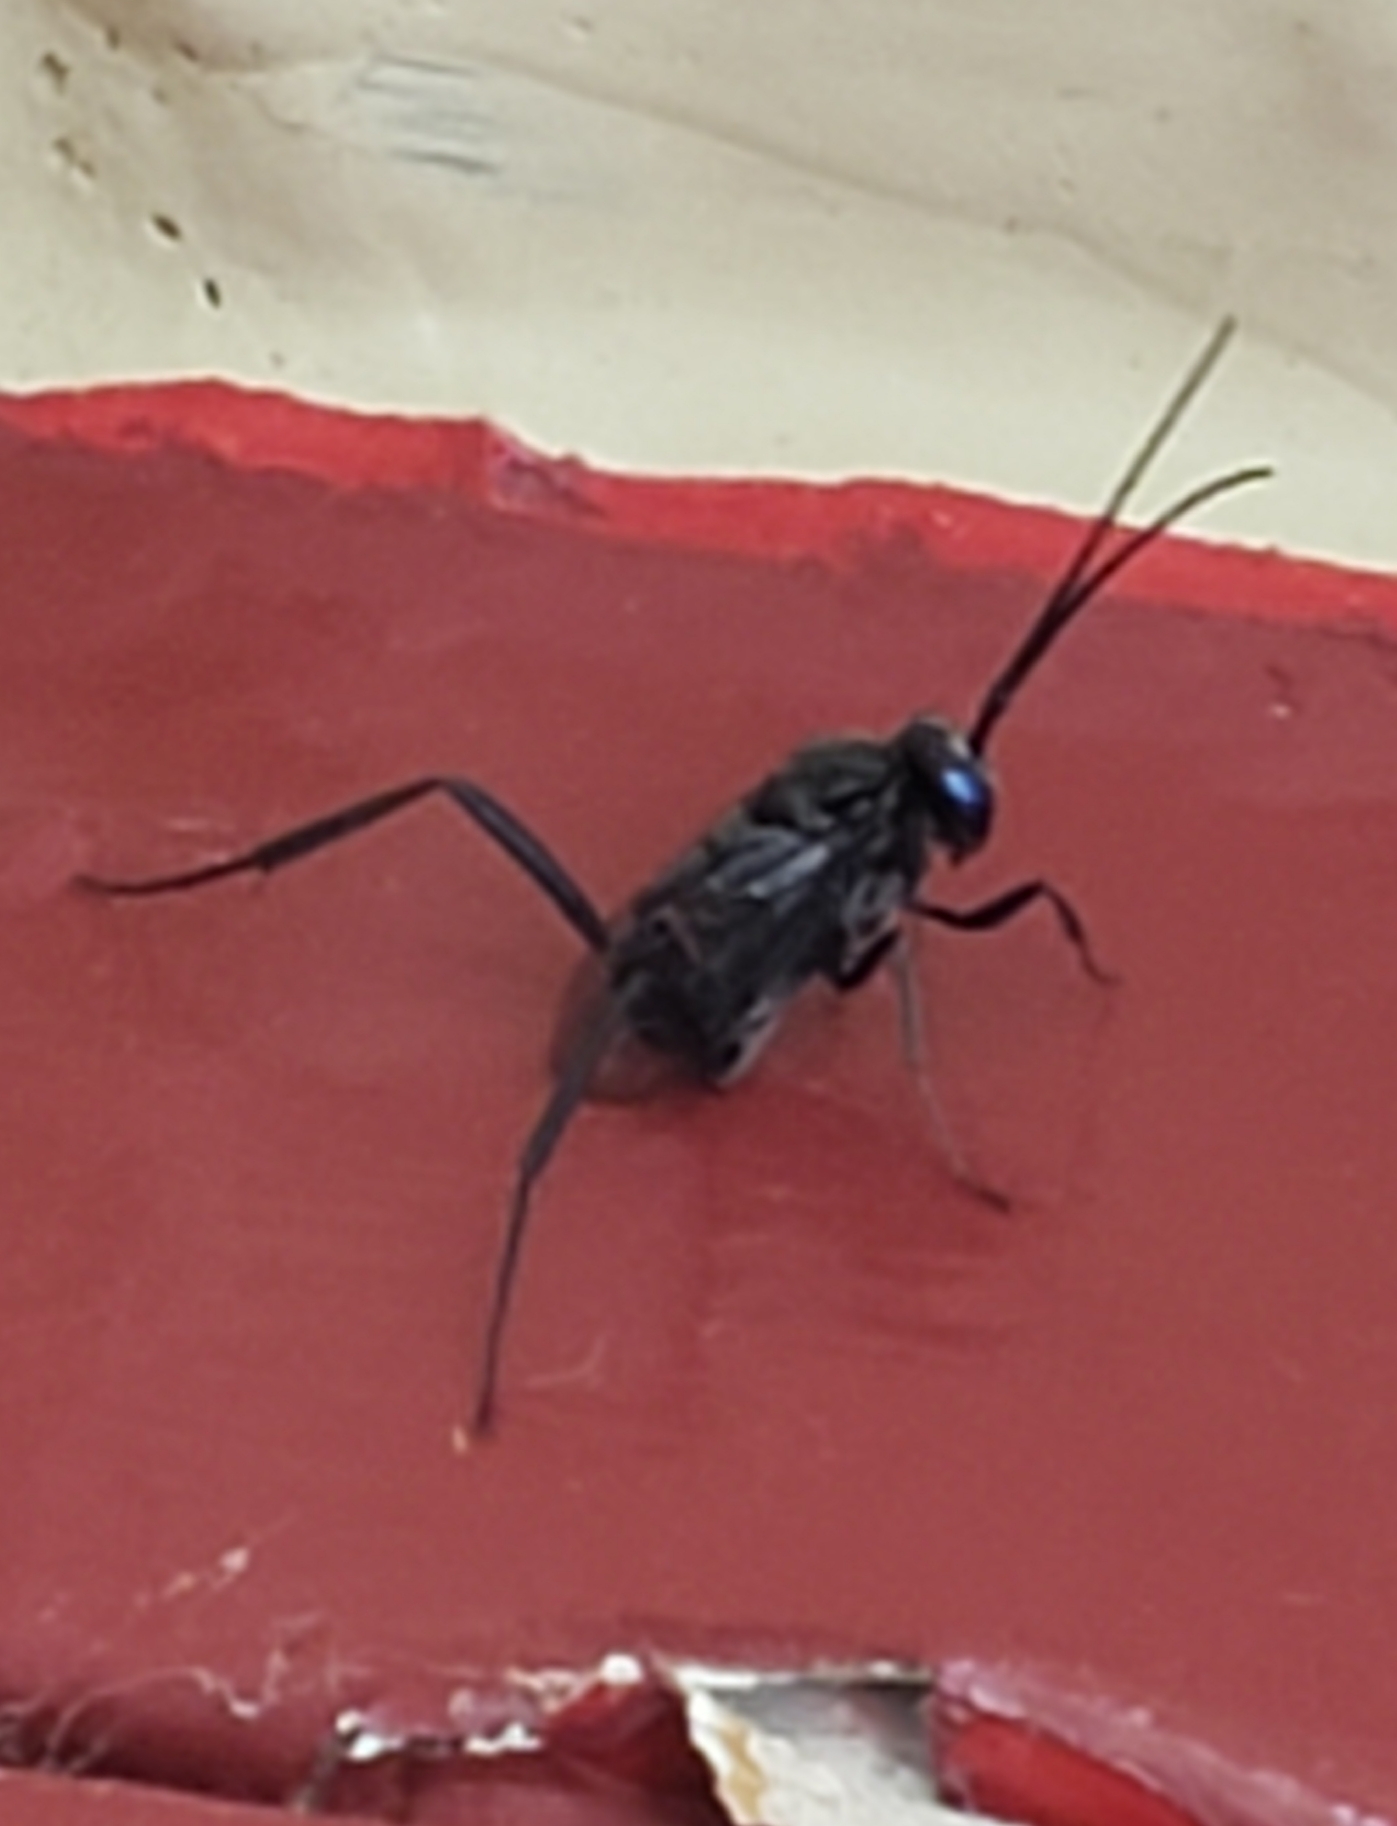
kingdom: Animalia
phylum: Arthropoda
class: Insecta
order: Hymenoptera
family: Evaniidae
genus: Evania
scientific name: Evania appendigaster
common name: Ensign wasp
